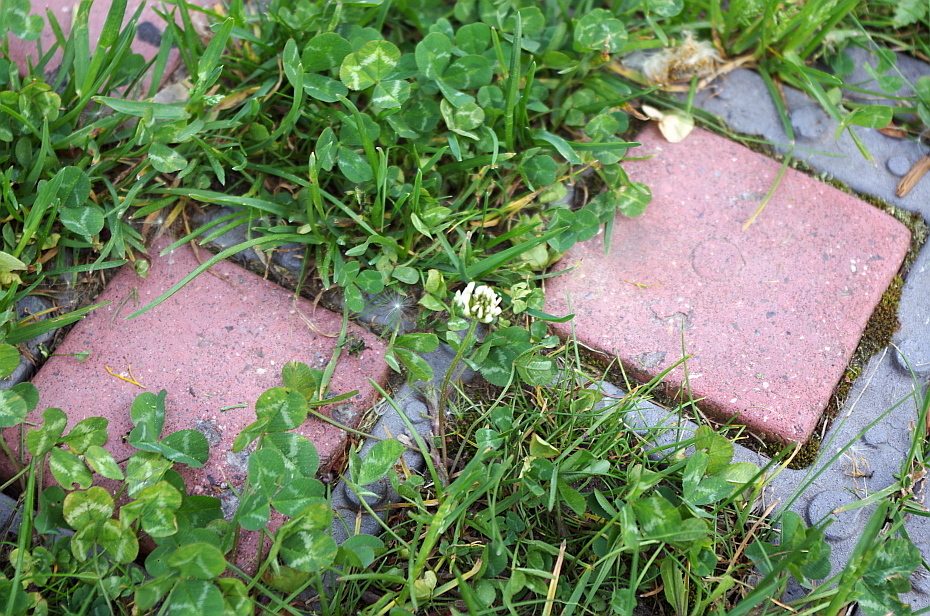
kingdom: Plantae
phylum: Tracheophyta
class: Magnoliopsida
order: Fabales
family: Fabaceae
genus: Trifolium
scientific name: Trifolium repens
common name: White clover
